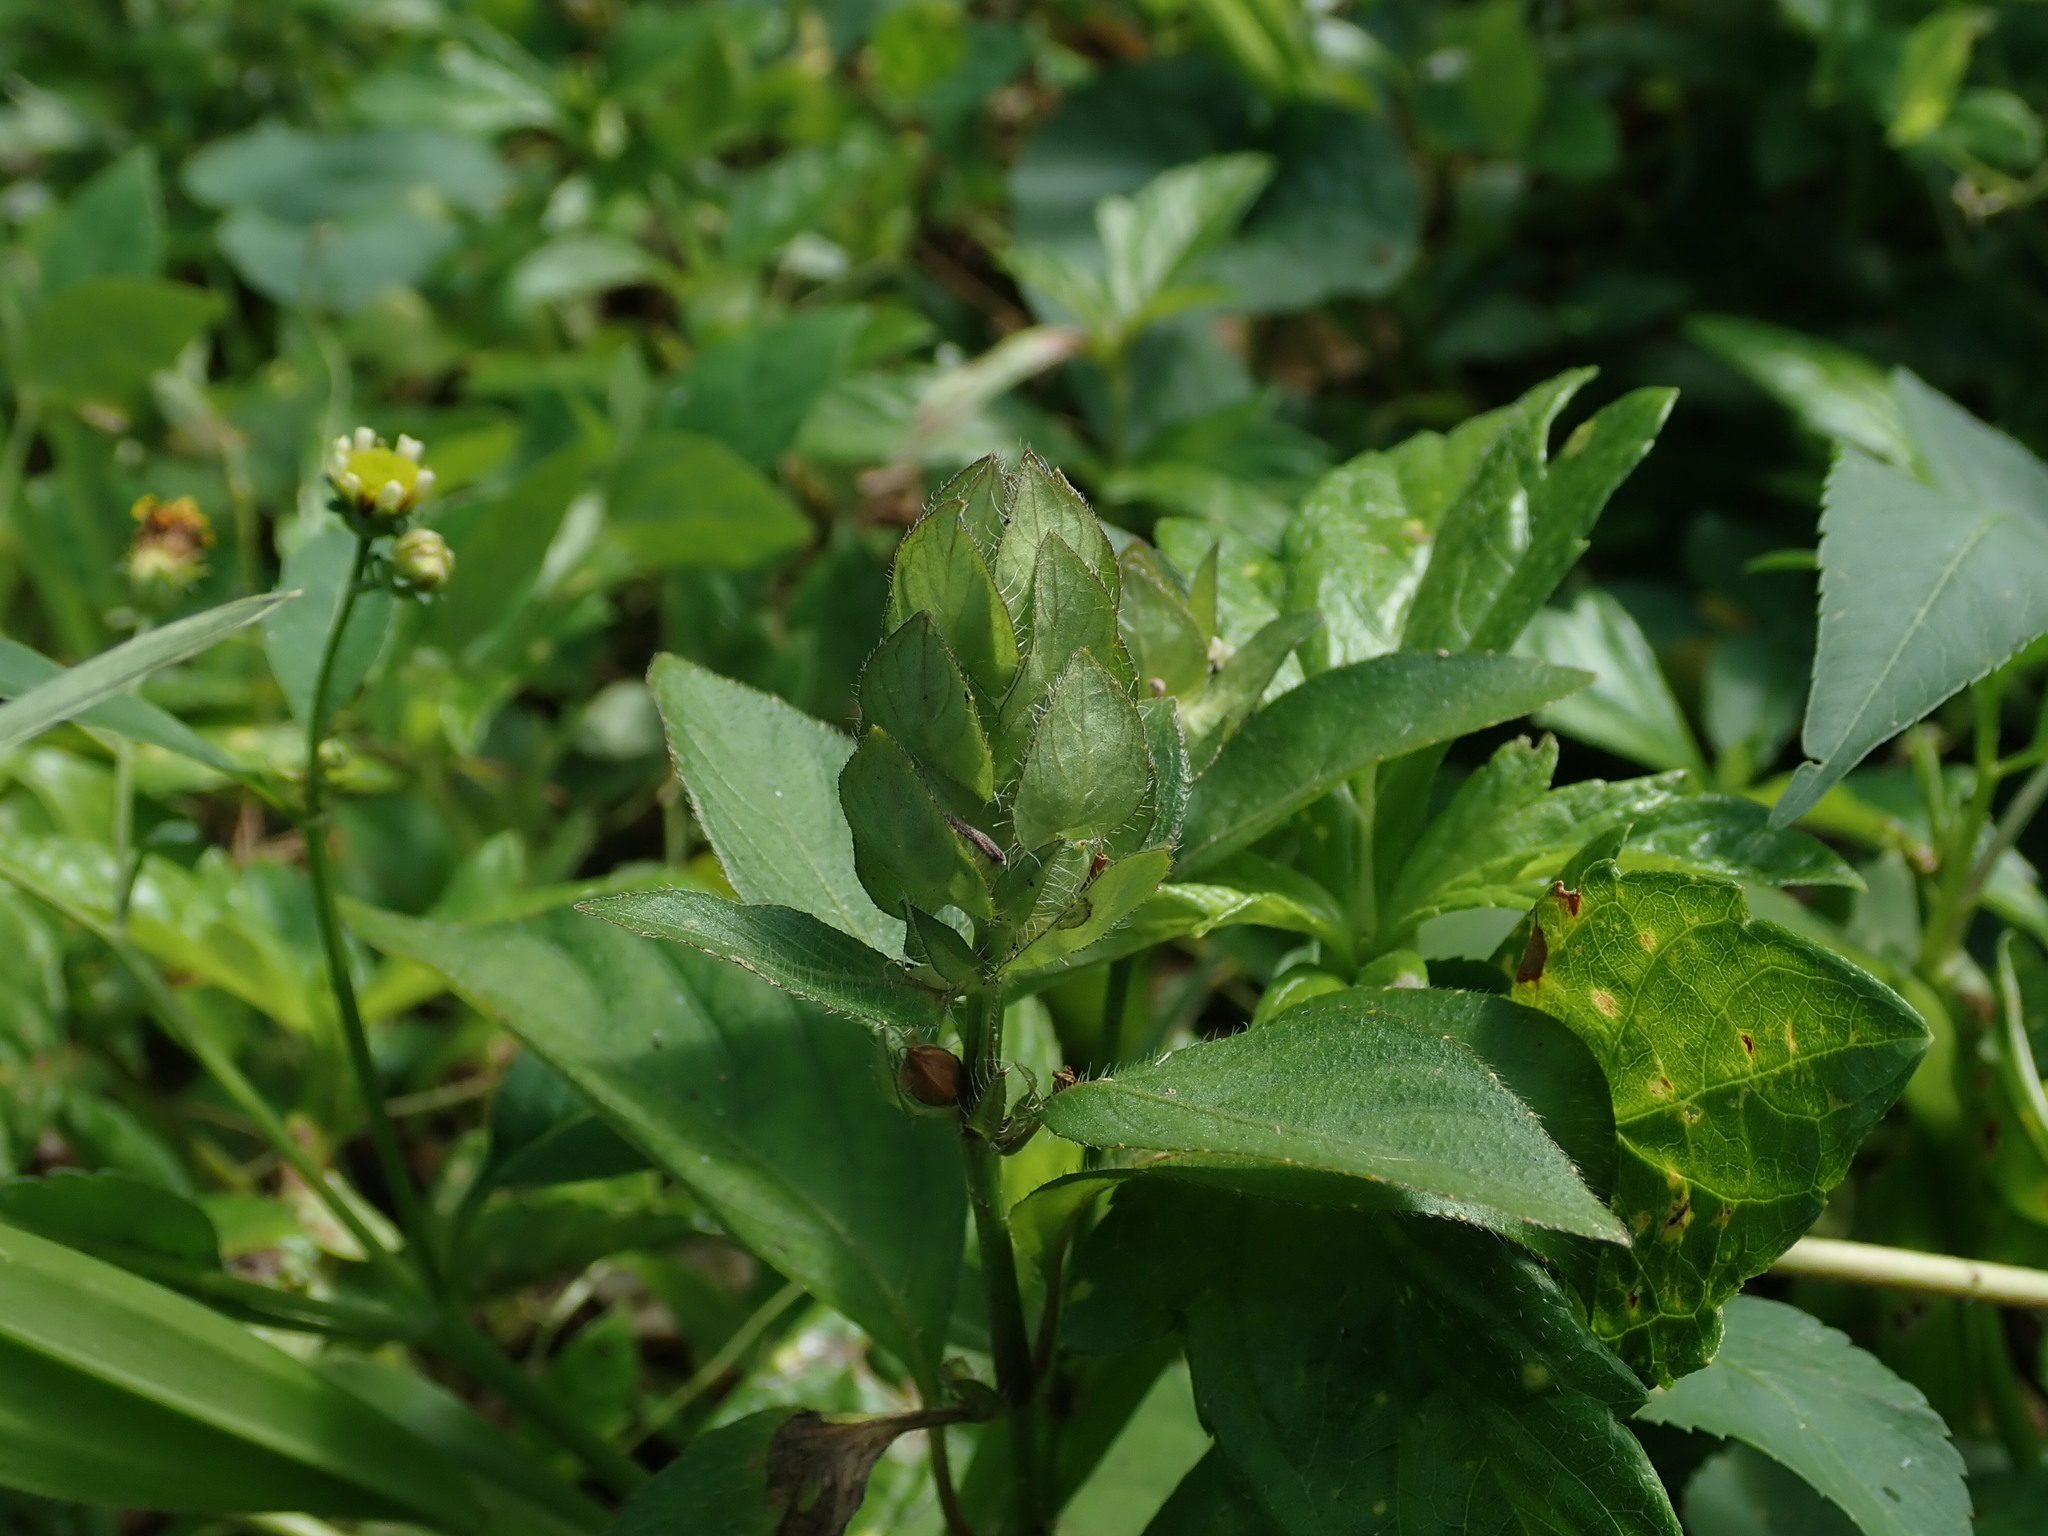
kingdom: Plantae
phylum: Tracheophyta
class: Magnoliopsida
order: Lamiales
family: Acanthaceae
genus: Ruellia
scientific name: Ruellia blechum
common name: Browne's blechum
